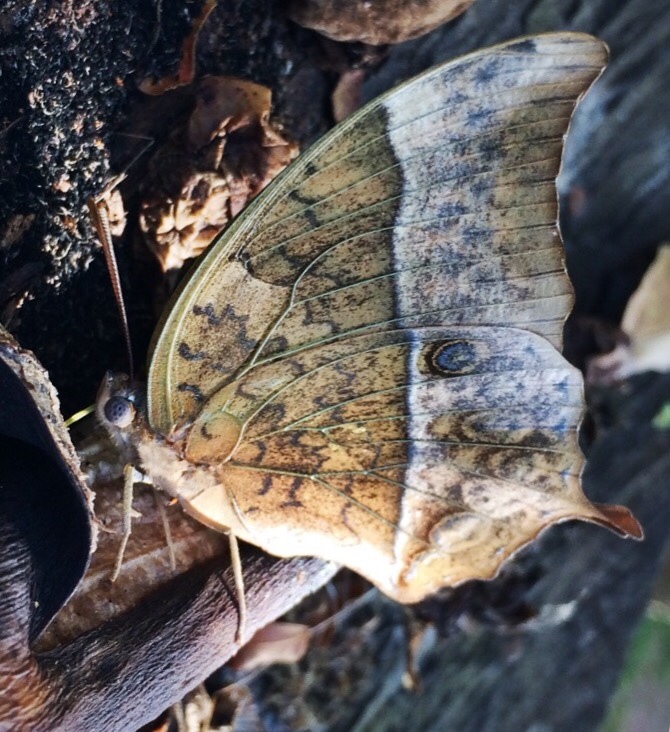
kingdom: Animalia
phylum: Arthropoda
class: Insecta
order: Lepidoptera
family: Nymphalidae
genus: Charaxes
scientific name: Charaxes varanes
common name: Common pearl charaxes
